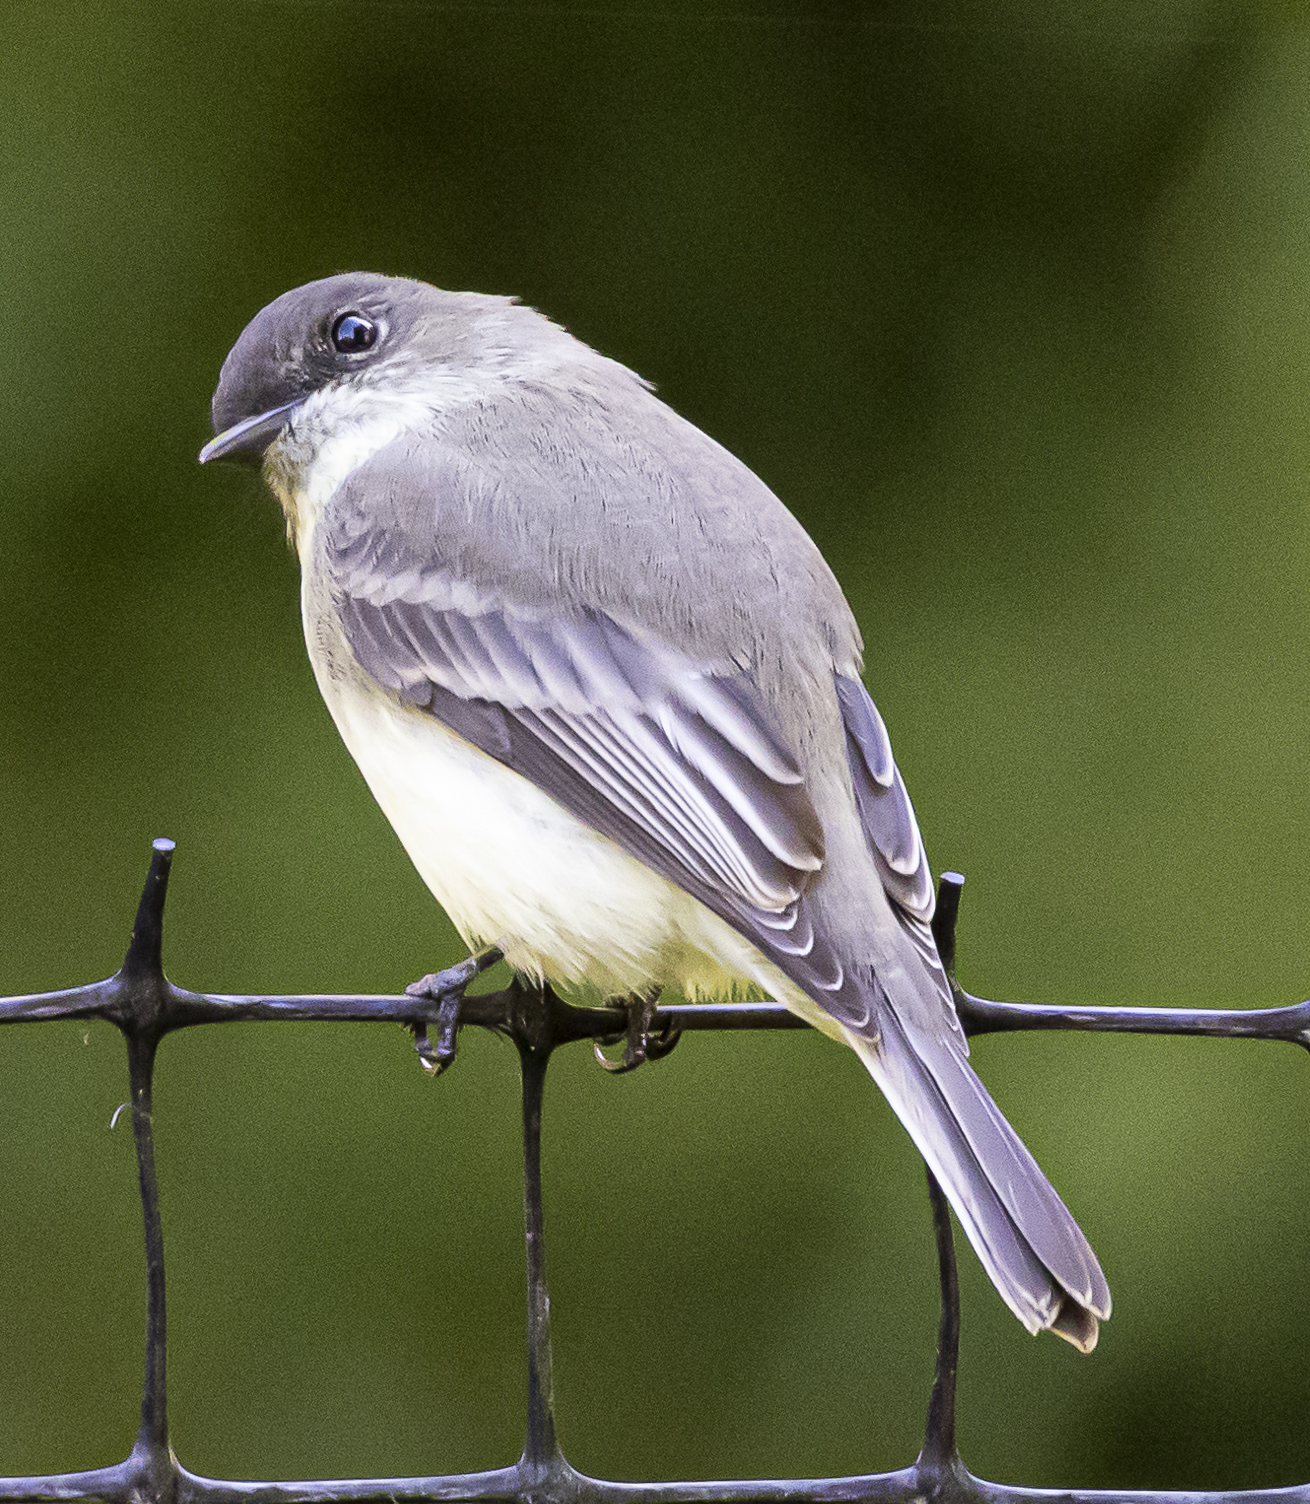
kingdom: Animalia
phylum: Chordata
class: Aves
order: Passeriformes
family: Tyrannidae
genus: Sayornis
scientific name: Sayornis phoebe
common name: Eastern phoebe
